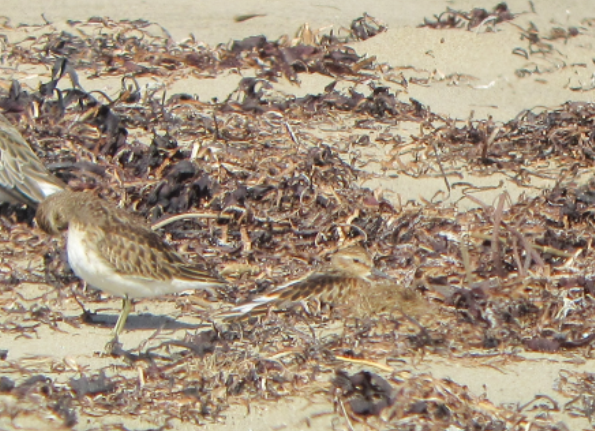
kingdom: Animalia
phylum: Chordata
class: Aves
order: Charadriiformes
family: Scolopacidae
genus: Calidris
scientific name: Calidris minutilla
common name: Least sandpiper
